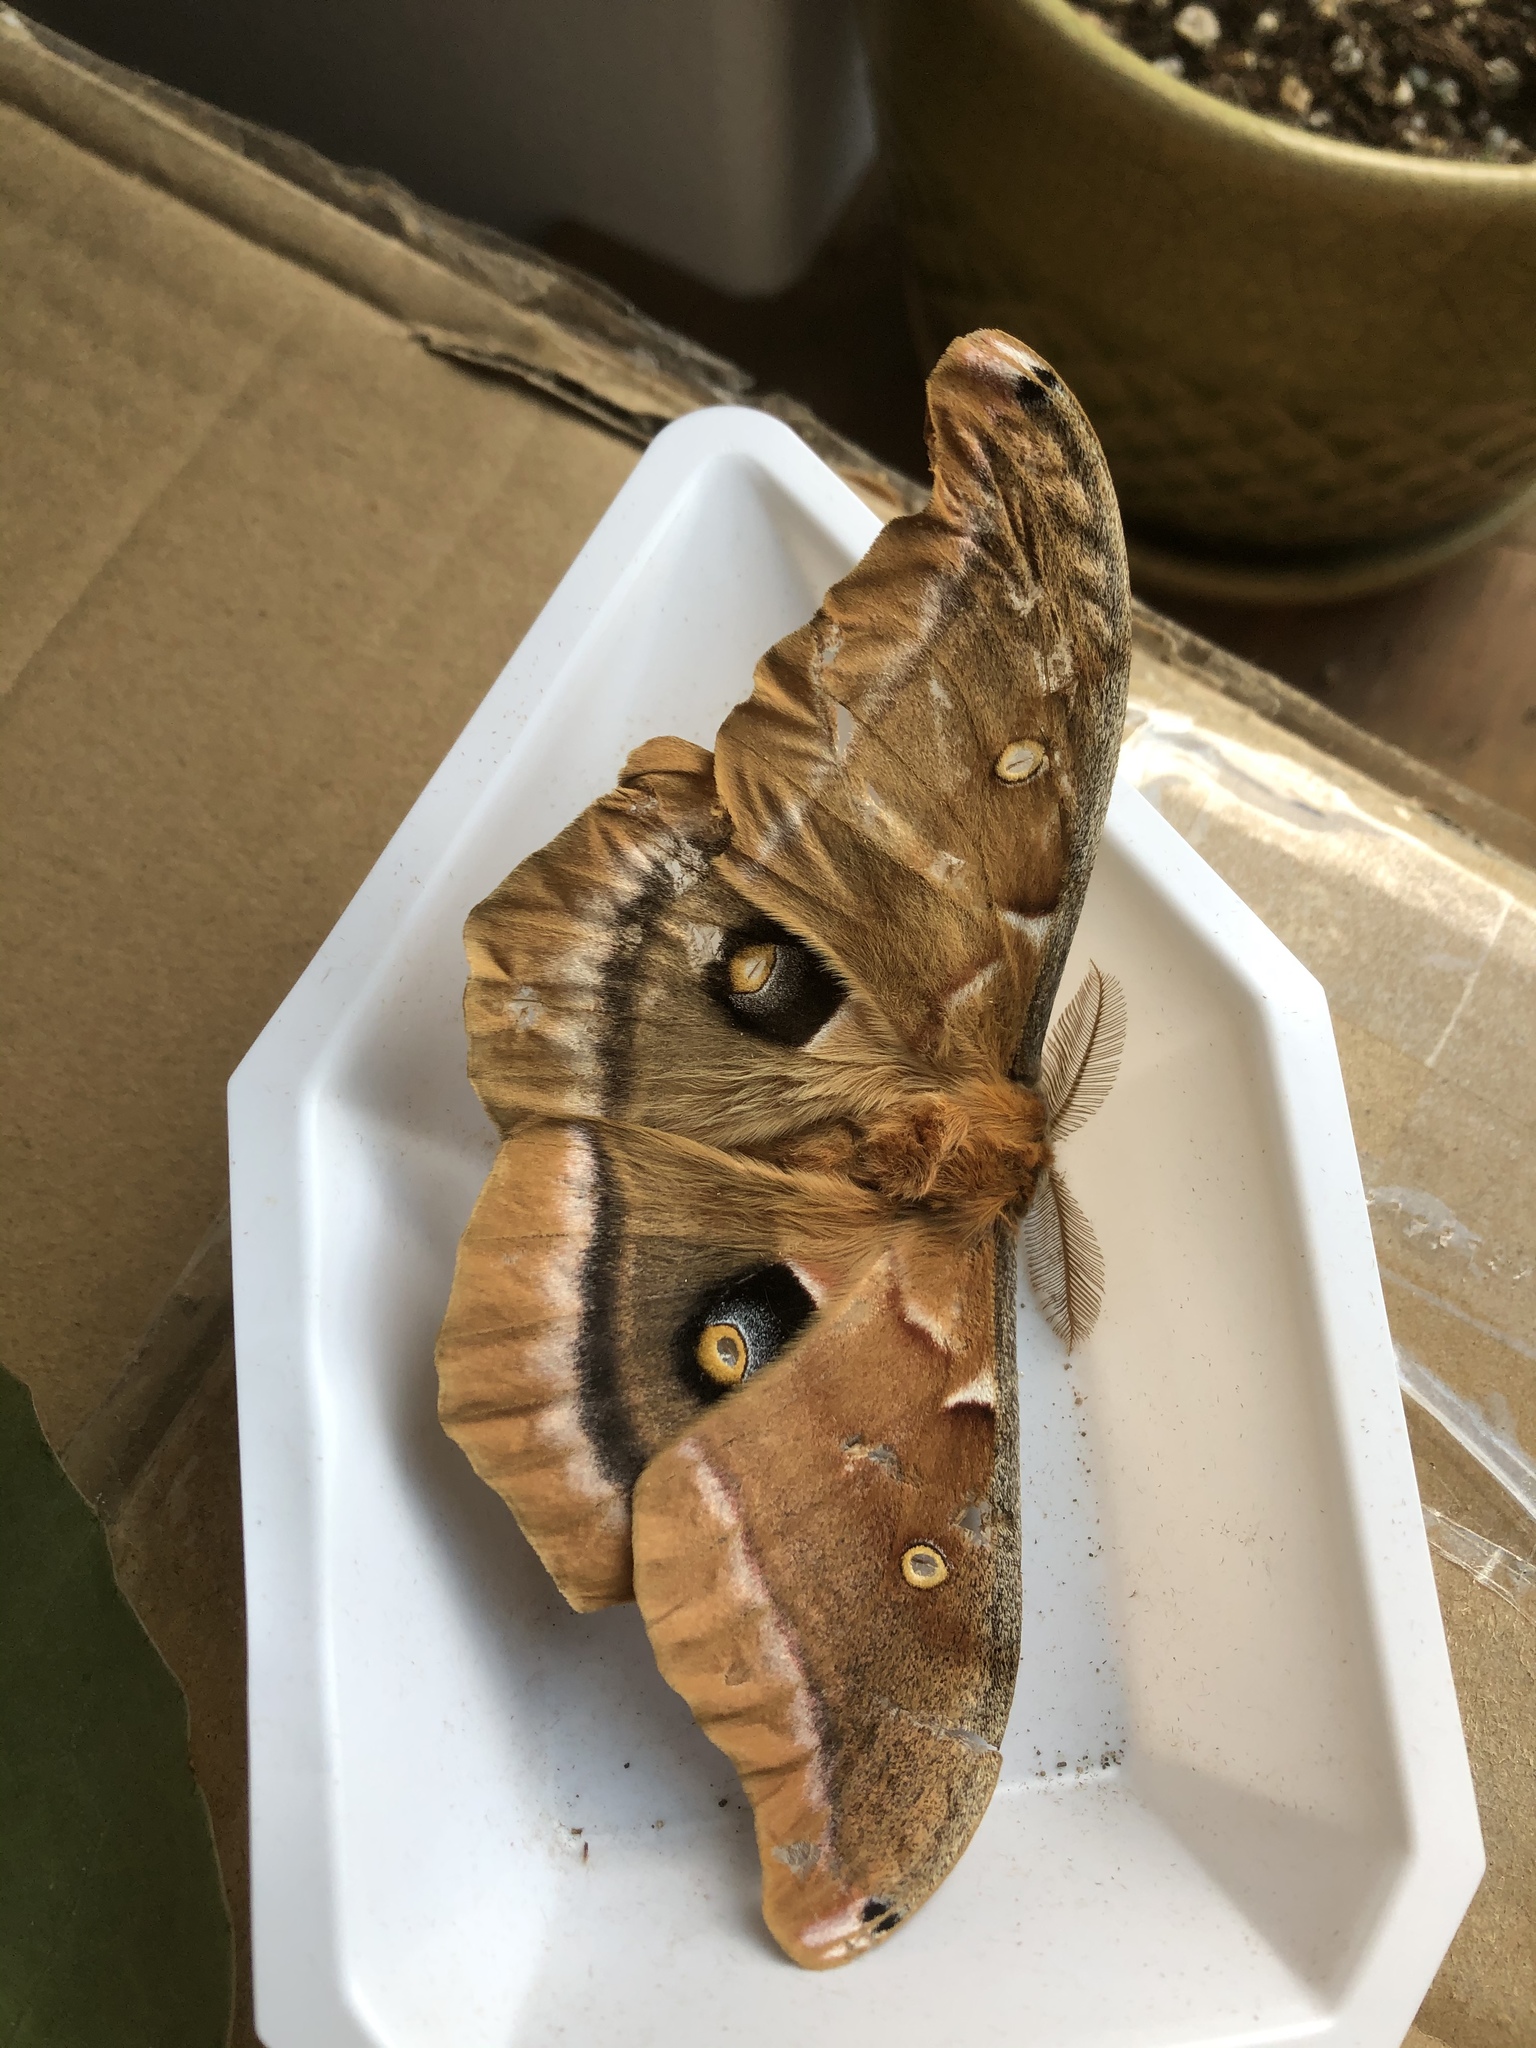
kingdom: Animalia
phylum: Arthropoda
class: Insecta
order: Lepidoptera
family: Saturniidae
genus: Antheraea
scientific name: Antheraea polyphemus
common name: Polyphemus moth
